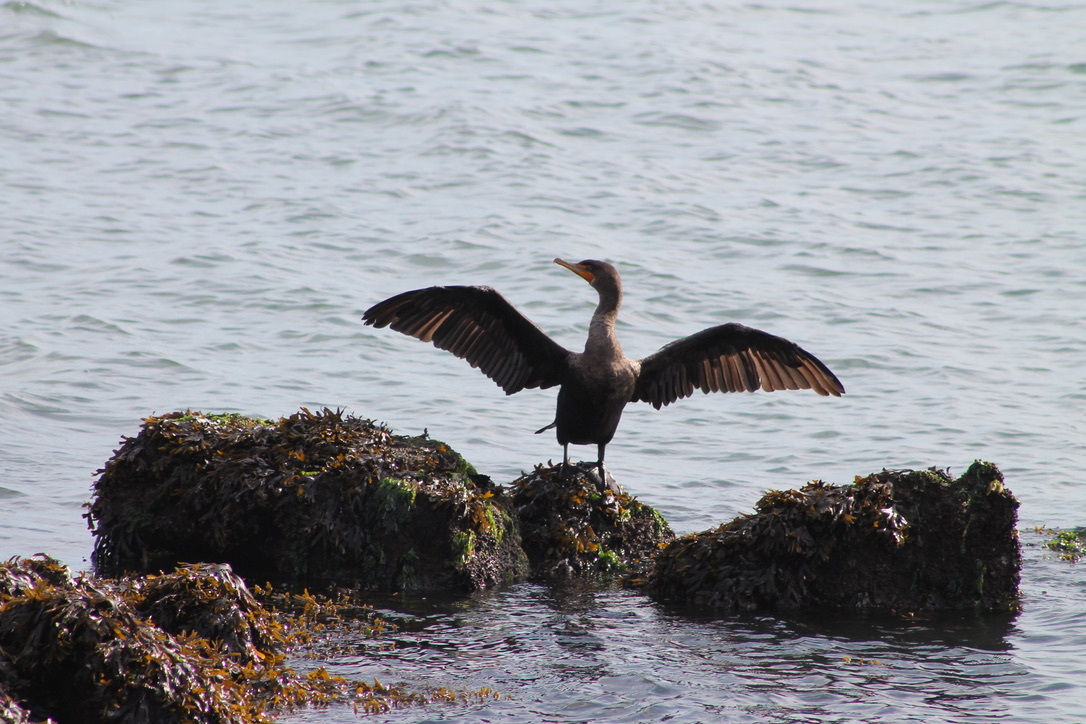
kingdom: Animalia
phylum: Chordata
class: Aves
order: Suliformes
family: Phalacrocoracidae
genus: Phalacrocorax
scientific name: Phalacrocorax auritus
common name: Double-crested cormorant
